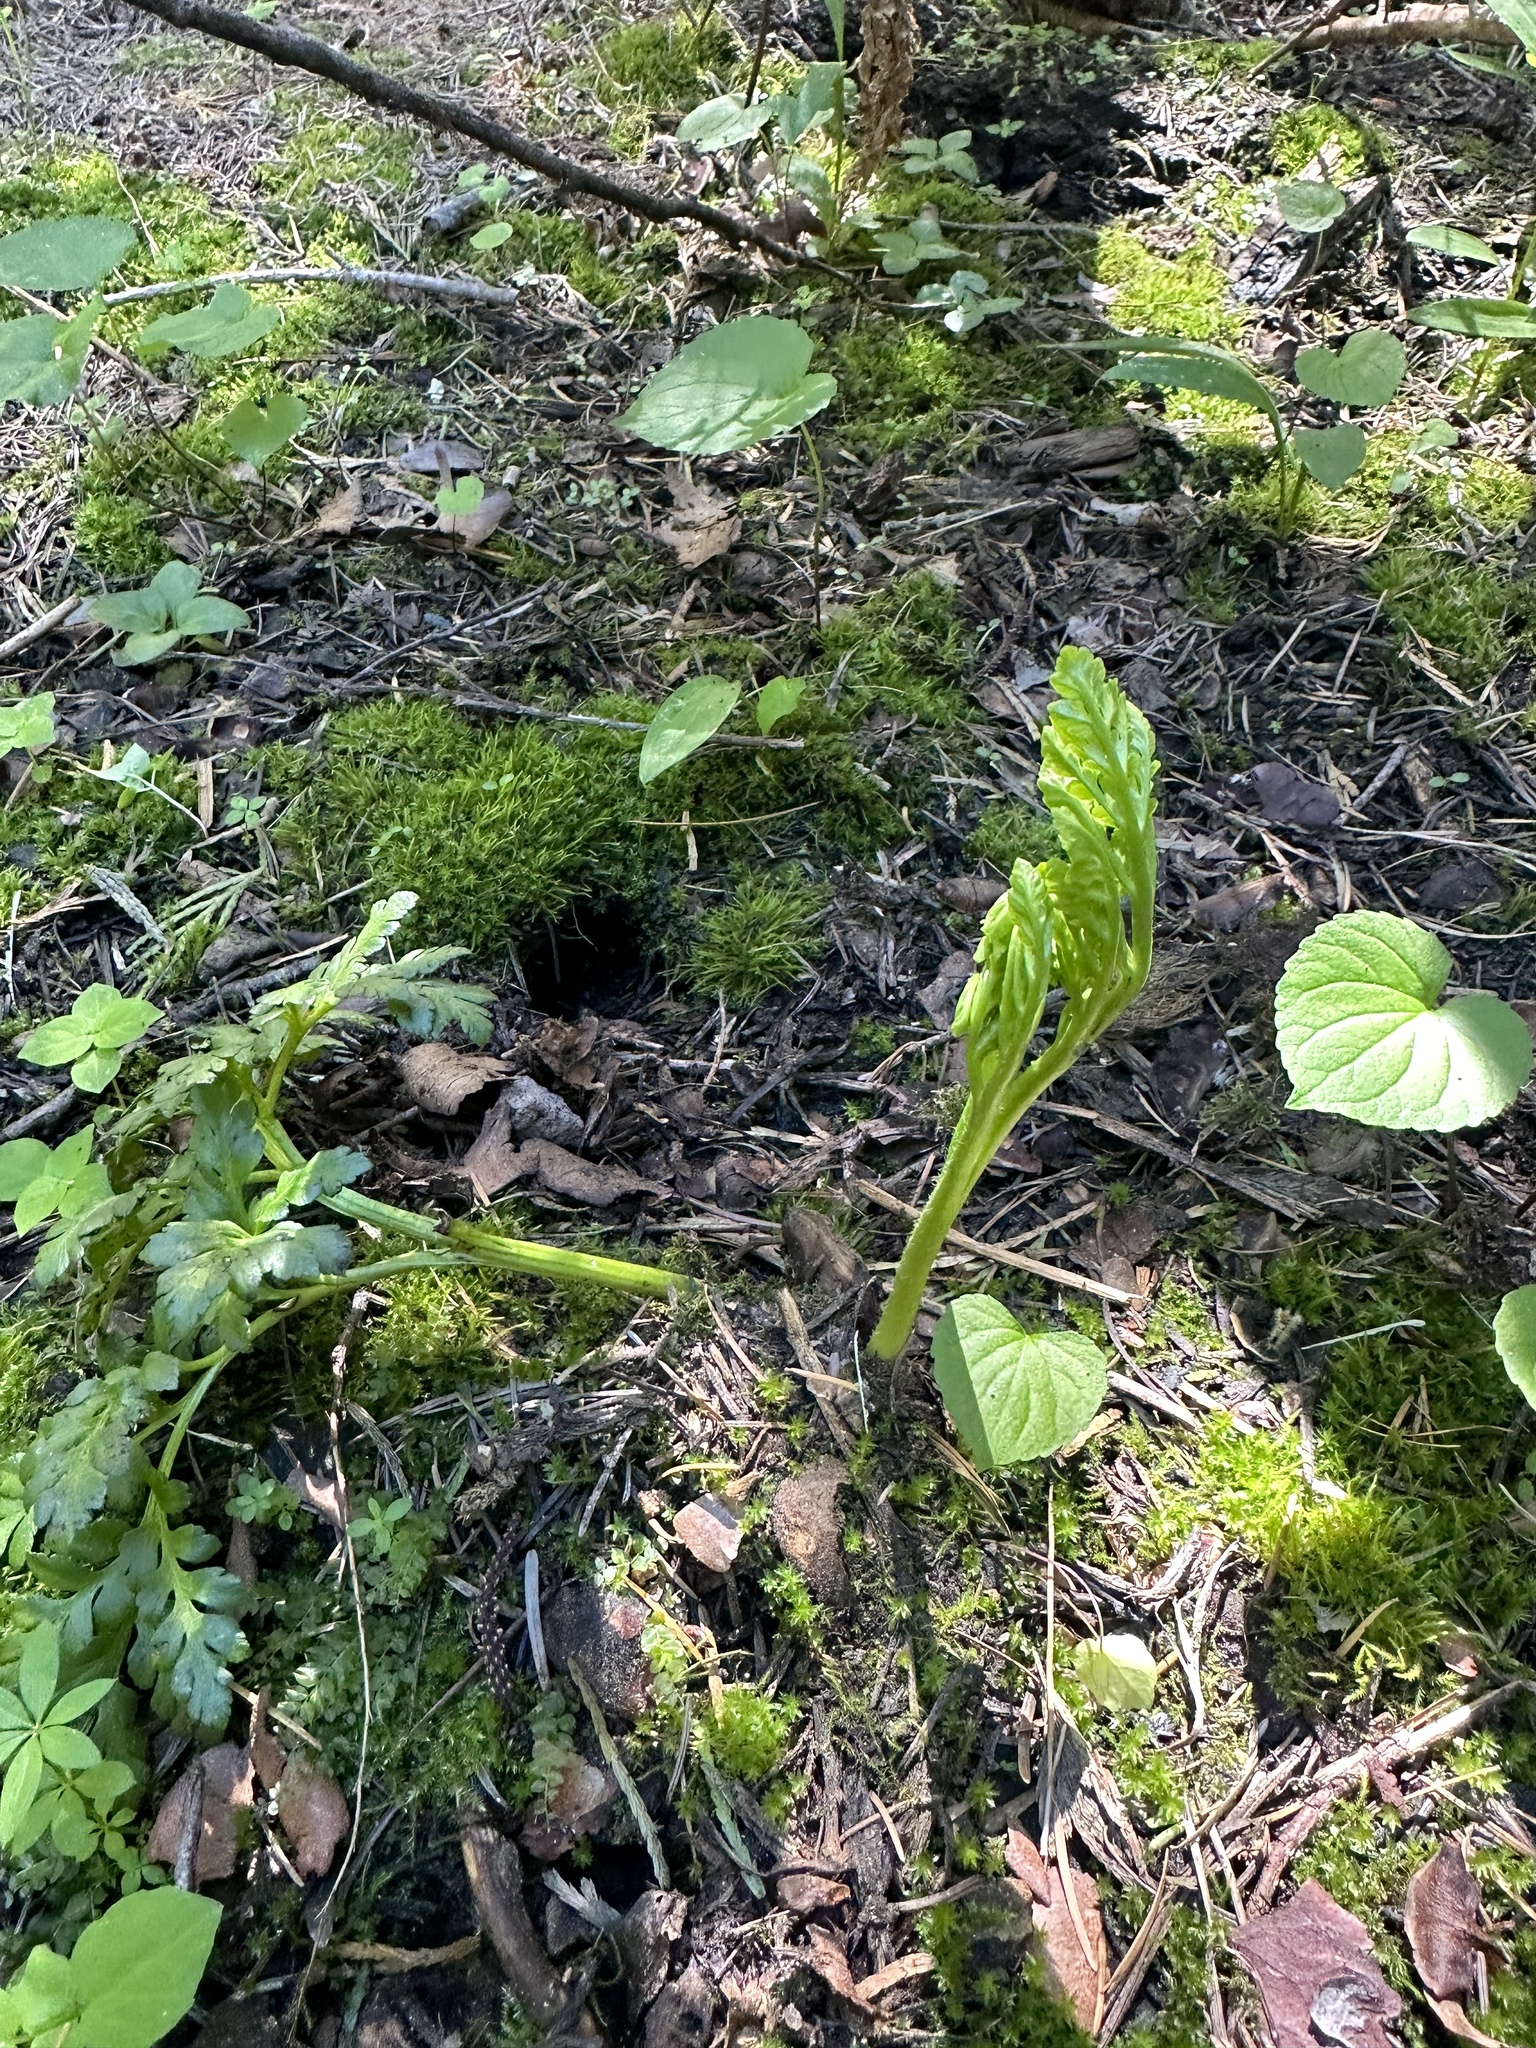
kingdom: Plantae
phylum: Tracheophyta
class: Polypodiopsida
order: Ophioglossales
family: Ophioglossaceae
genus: Sceptridium
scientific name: Sceptridium multifidum
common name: Leathery grape fern
